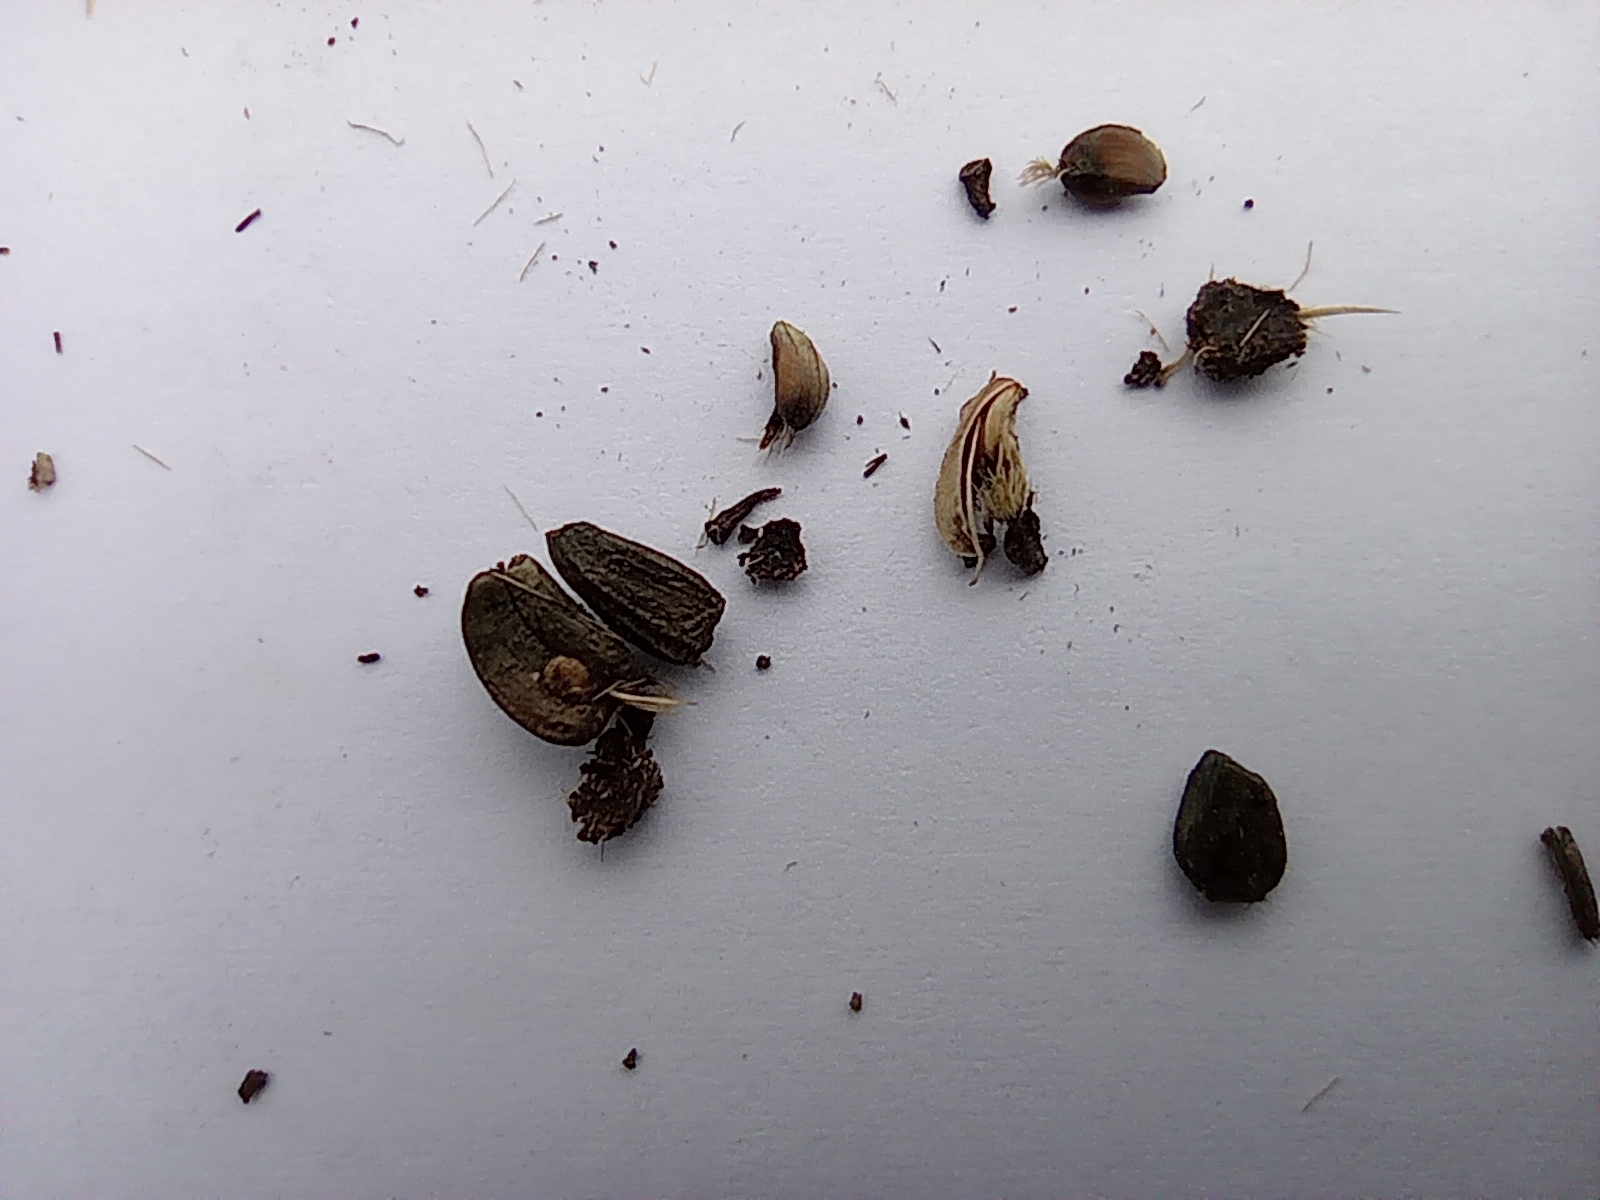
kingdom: Plantae
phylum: Tracheophyta
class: Magnoliopsida
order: Asterales
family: Asteraceae
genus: Arctium
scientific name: Arctium tomentosum
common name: Woolly burdock
